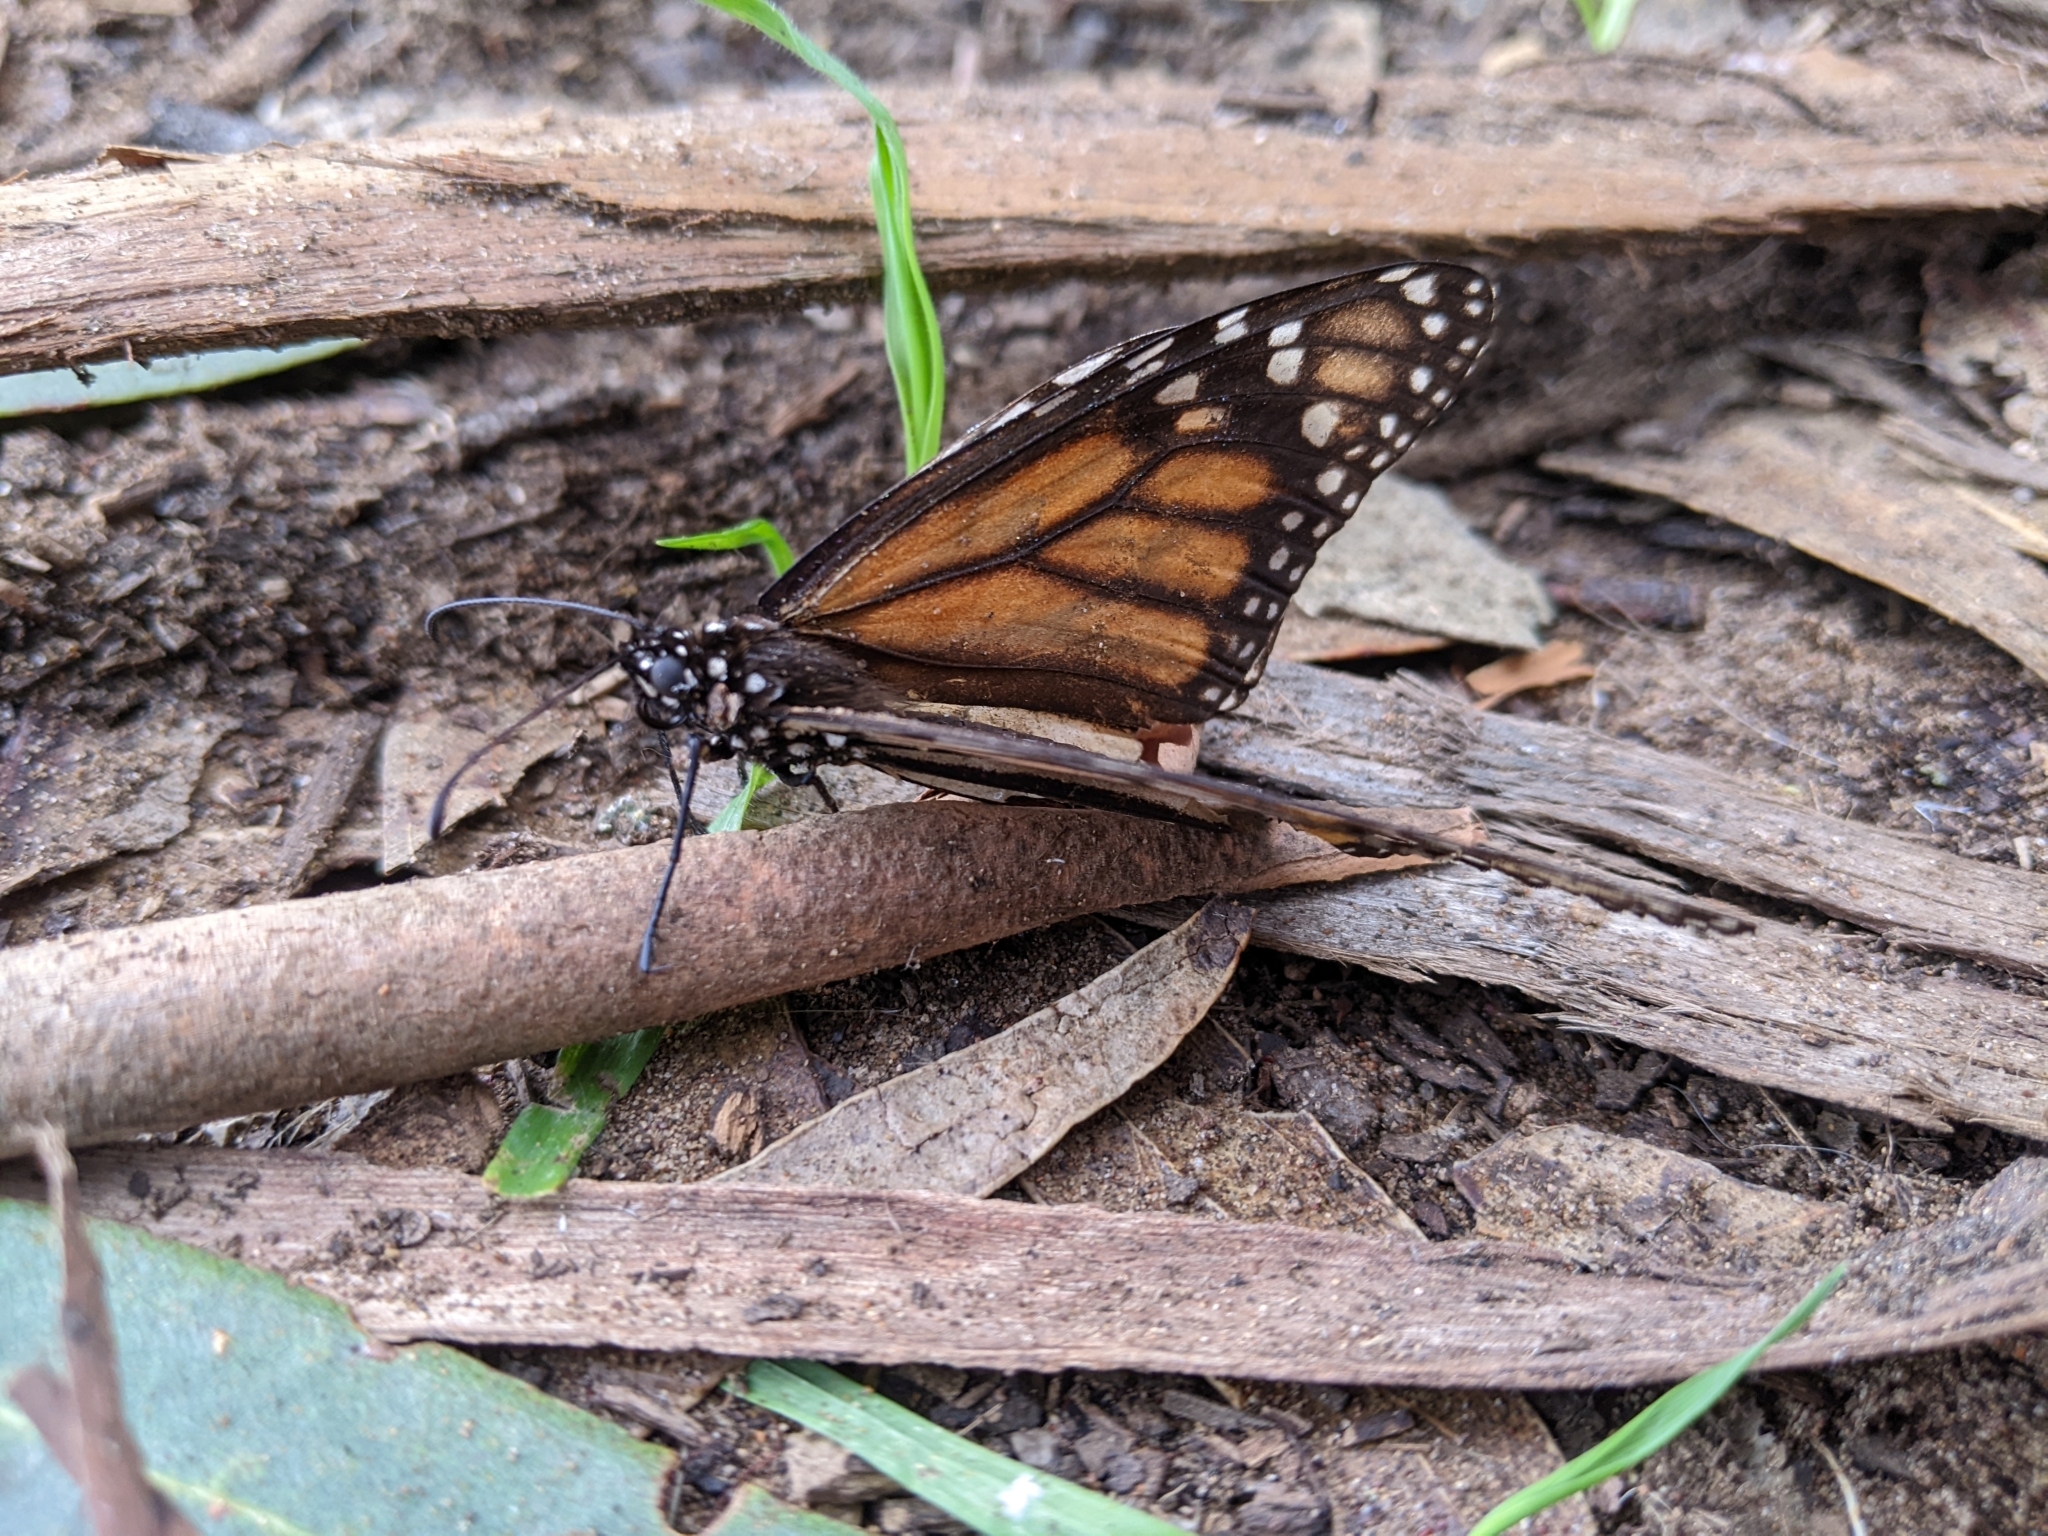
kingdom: Animalia
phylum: Arthropoda
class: Insecta
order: Lepidoptera
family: Nymphalidae
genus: Danaus
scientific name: Danaus plexippus
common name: Monarch
